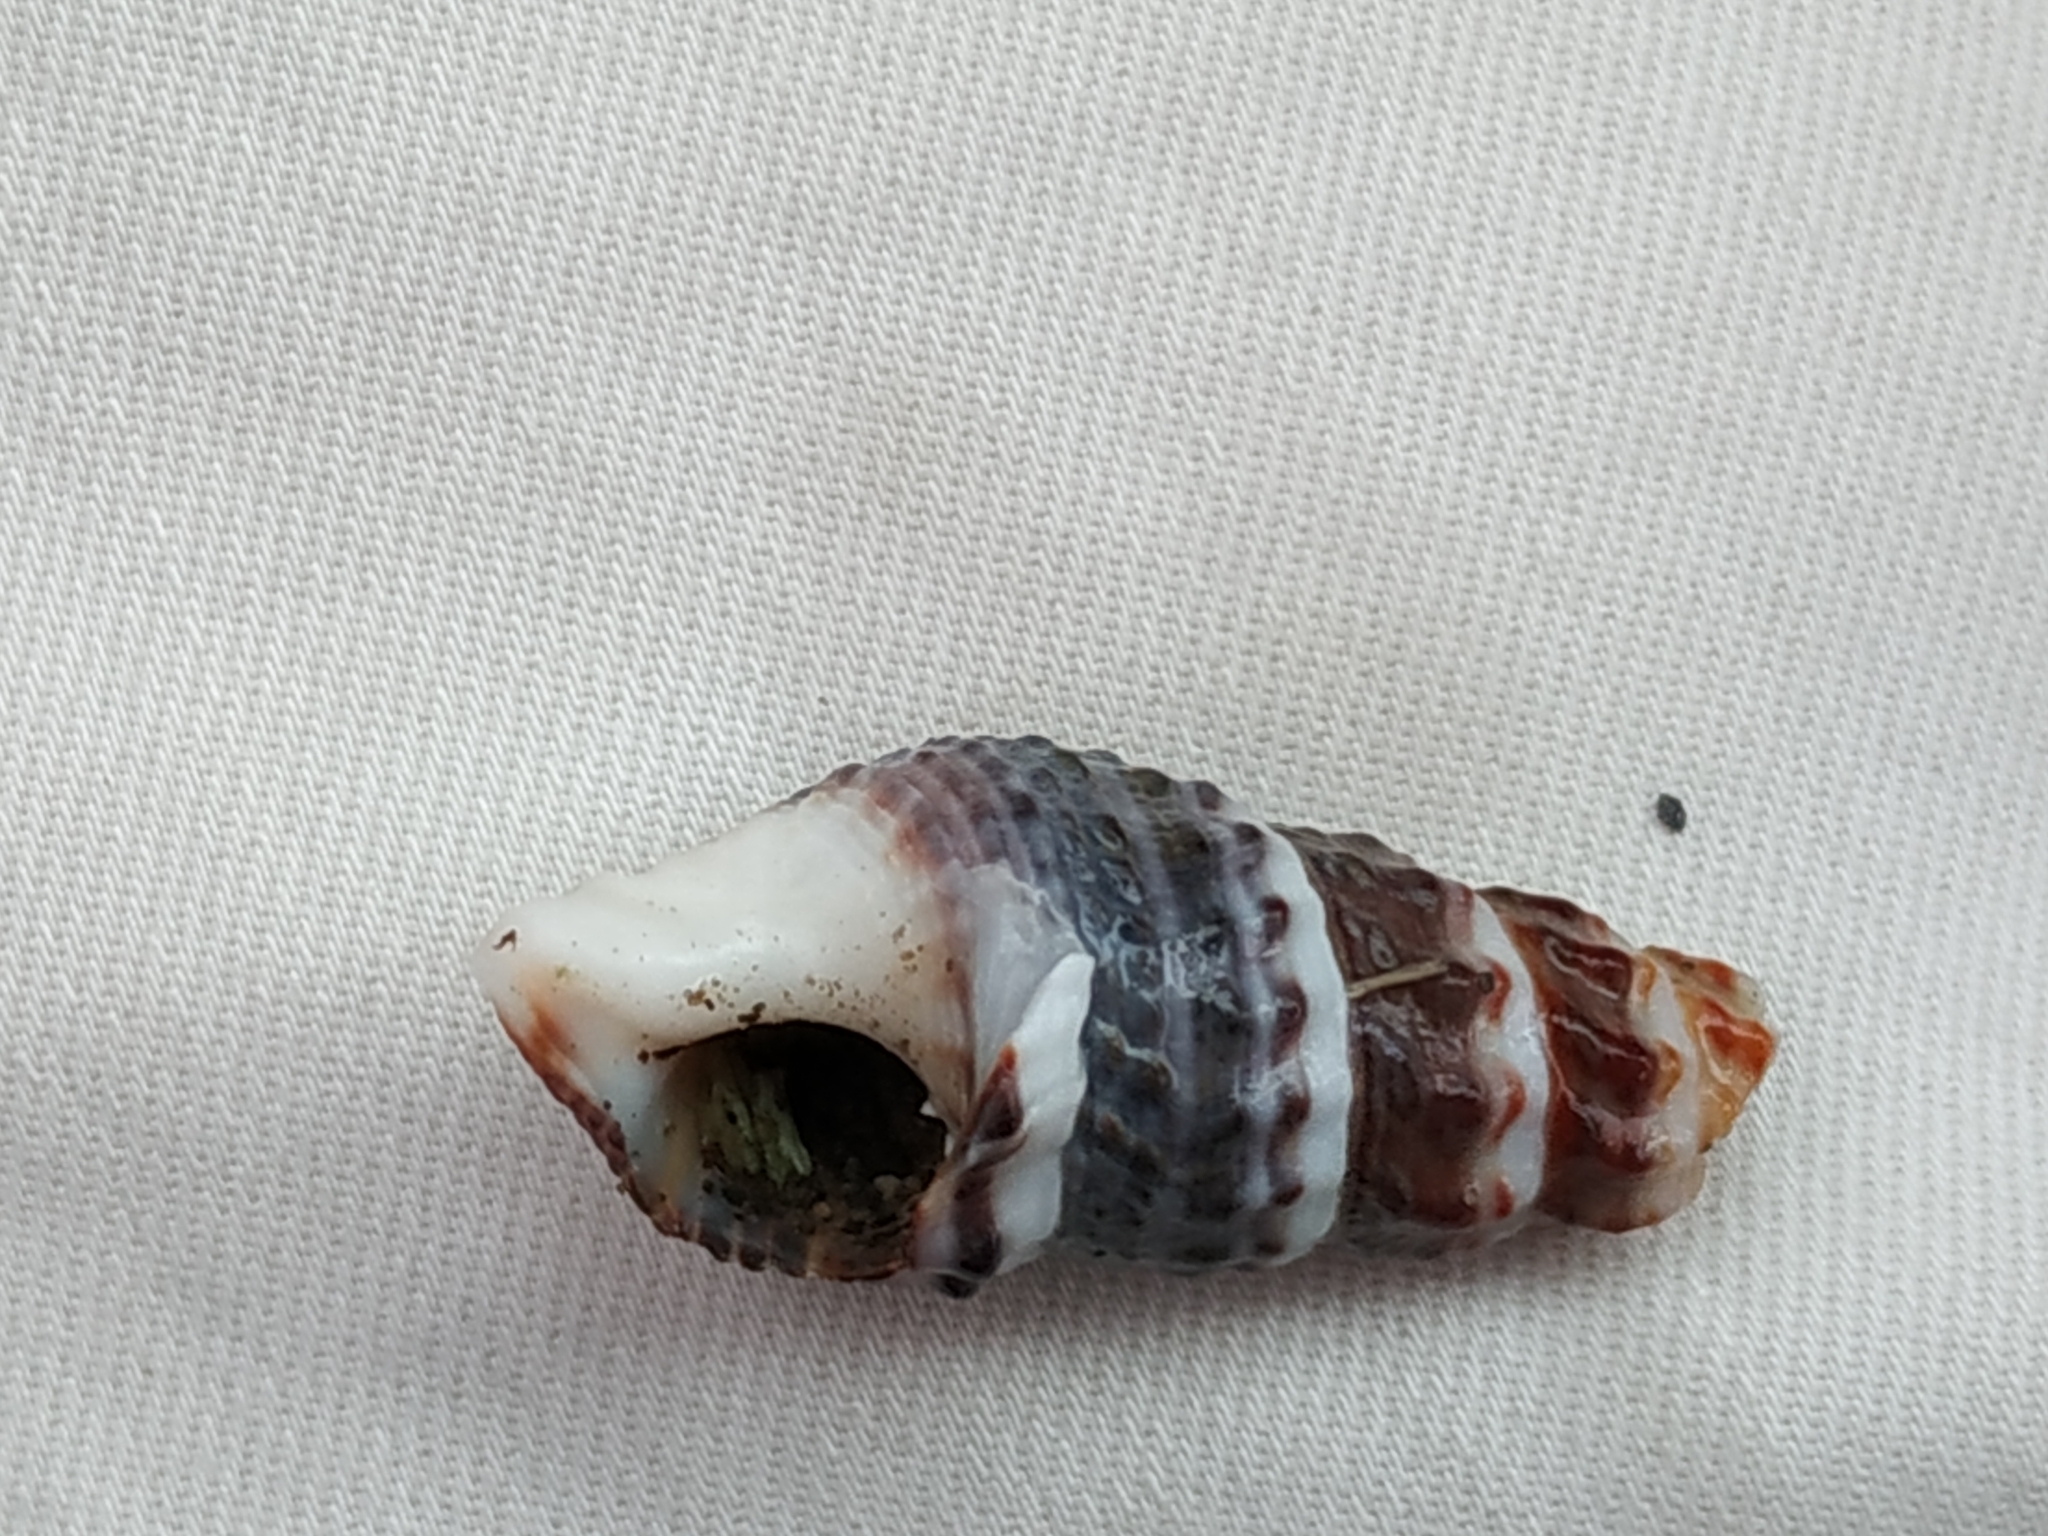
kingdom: Animalia
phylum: Mollusca
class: Gastropoda
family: Batillariidae
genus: Batillaria
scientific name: Batillaria zonalis
